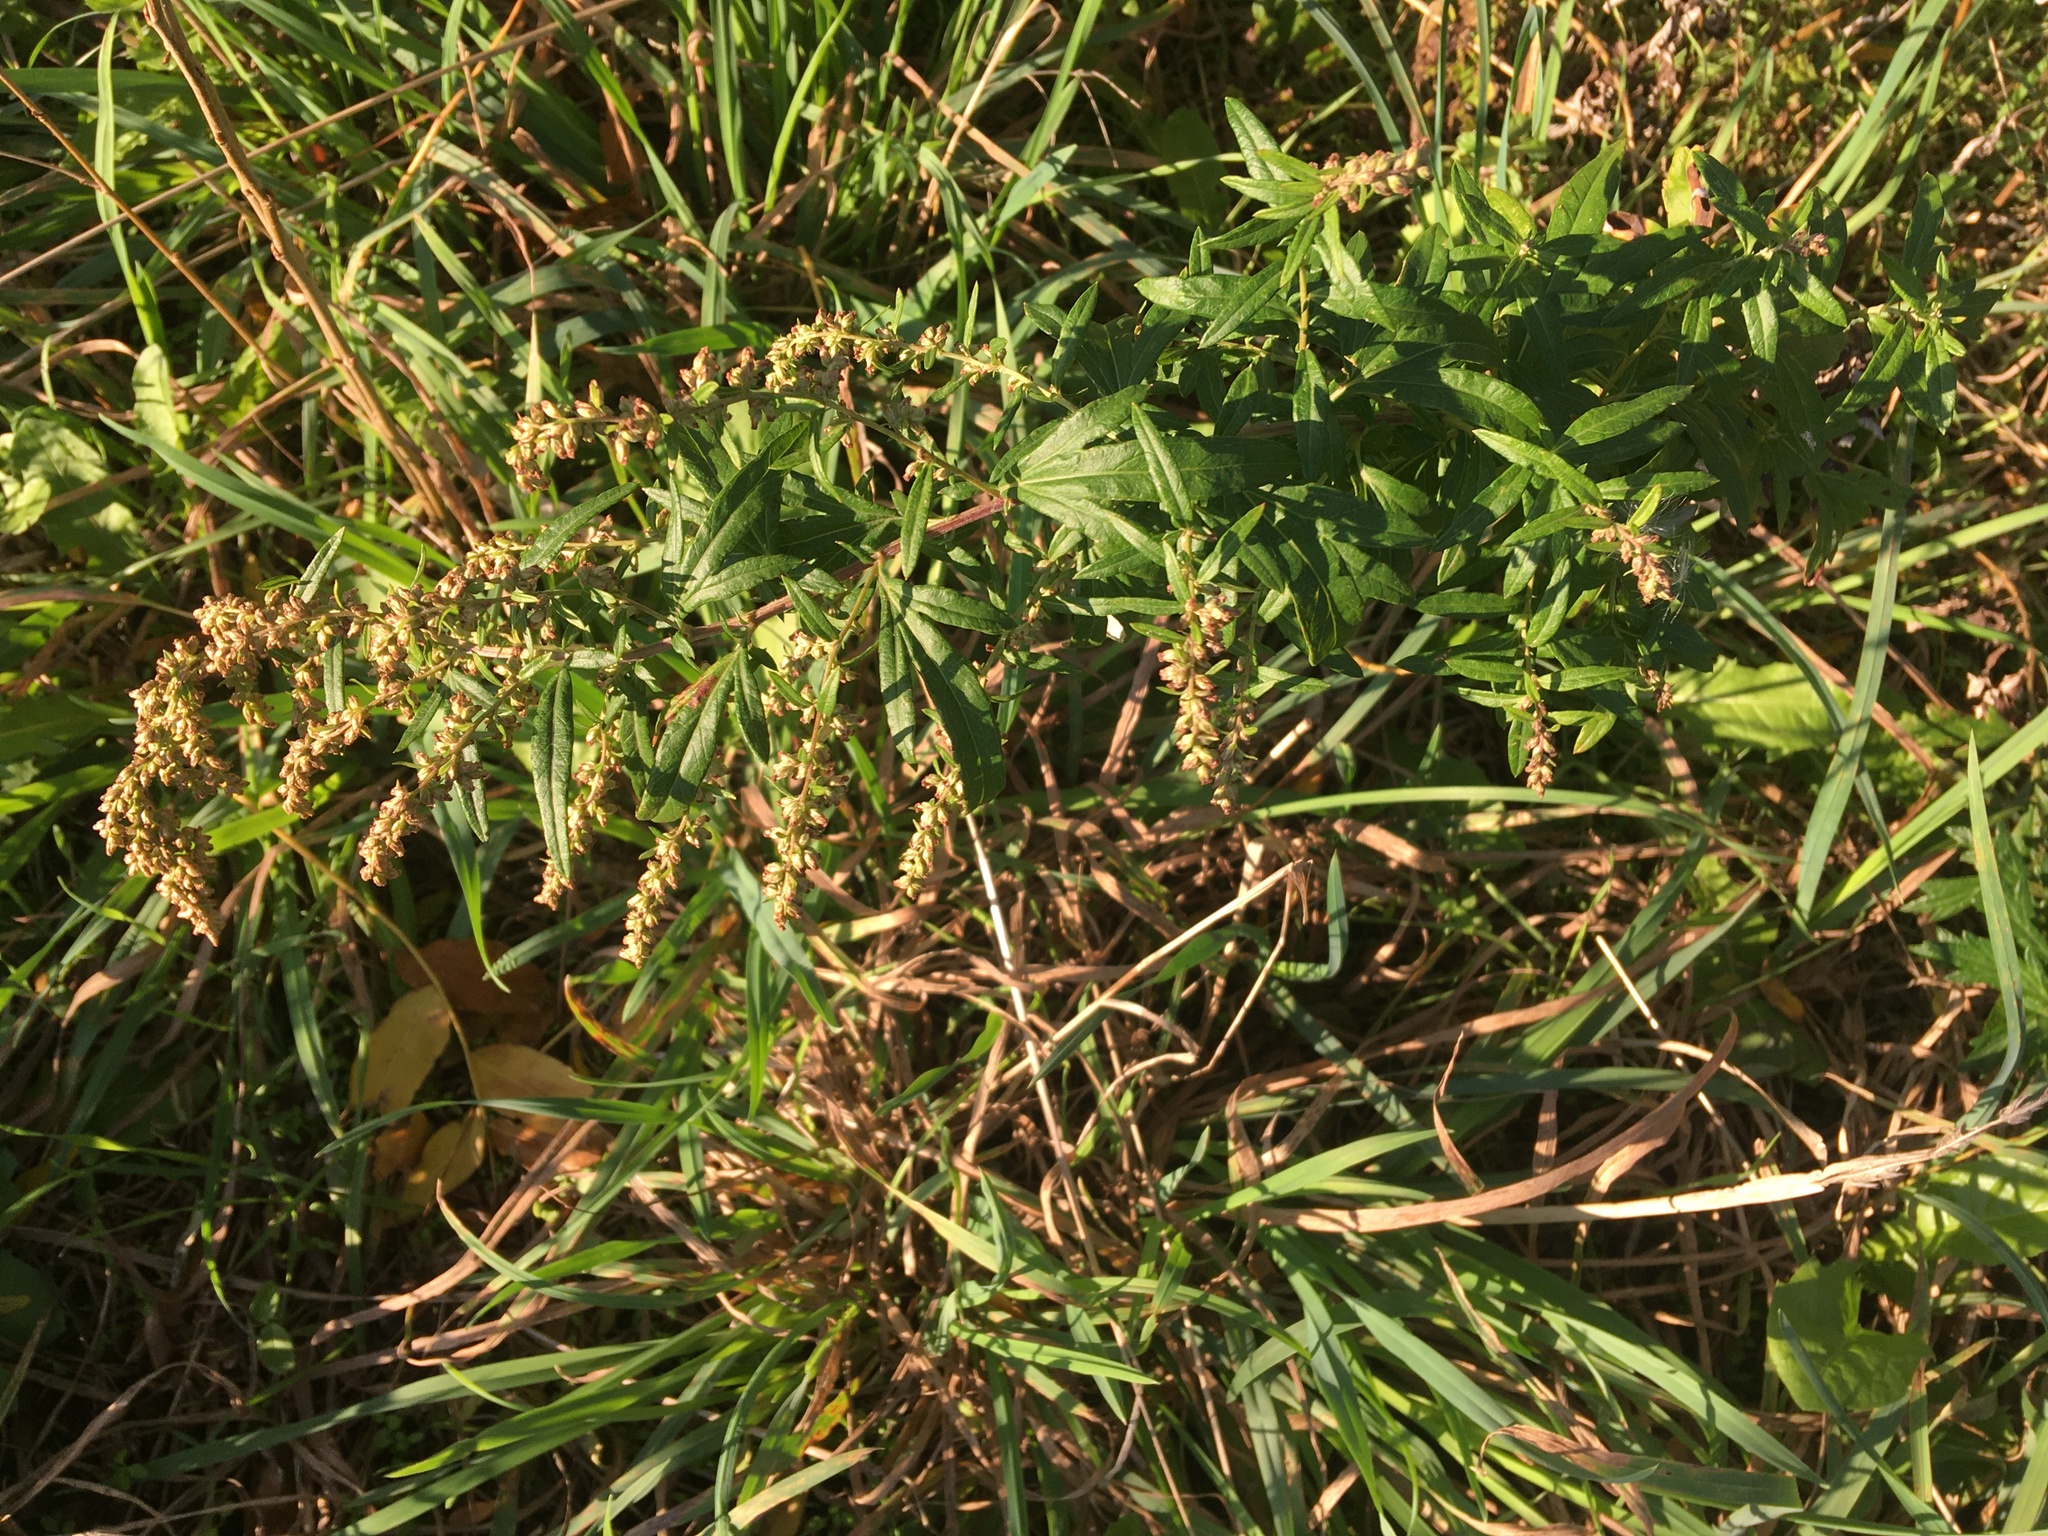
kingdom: Plantae
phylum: Tracheophyta
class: Magnoliopsida
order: Asterales
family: Asteraceae
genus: Artemisia
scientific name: Artemisia vulgaris
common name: Mugwort
